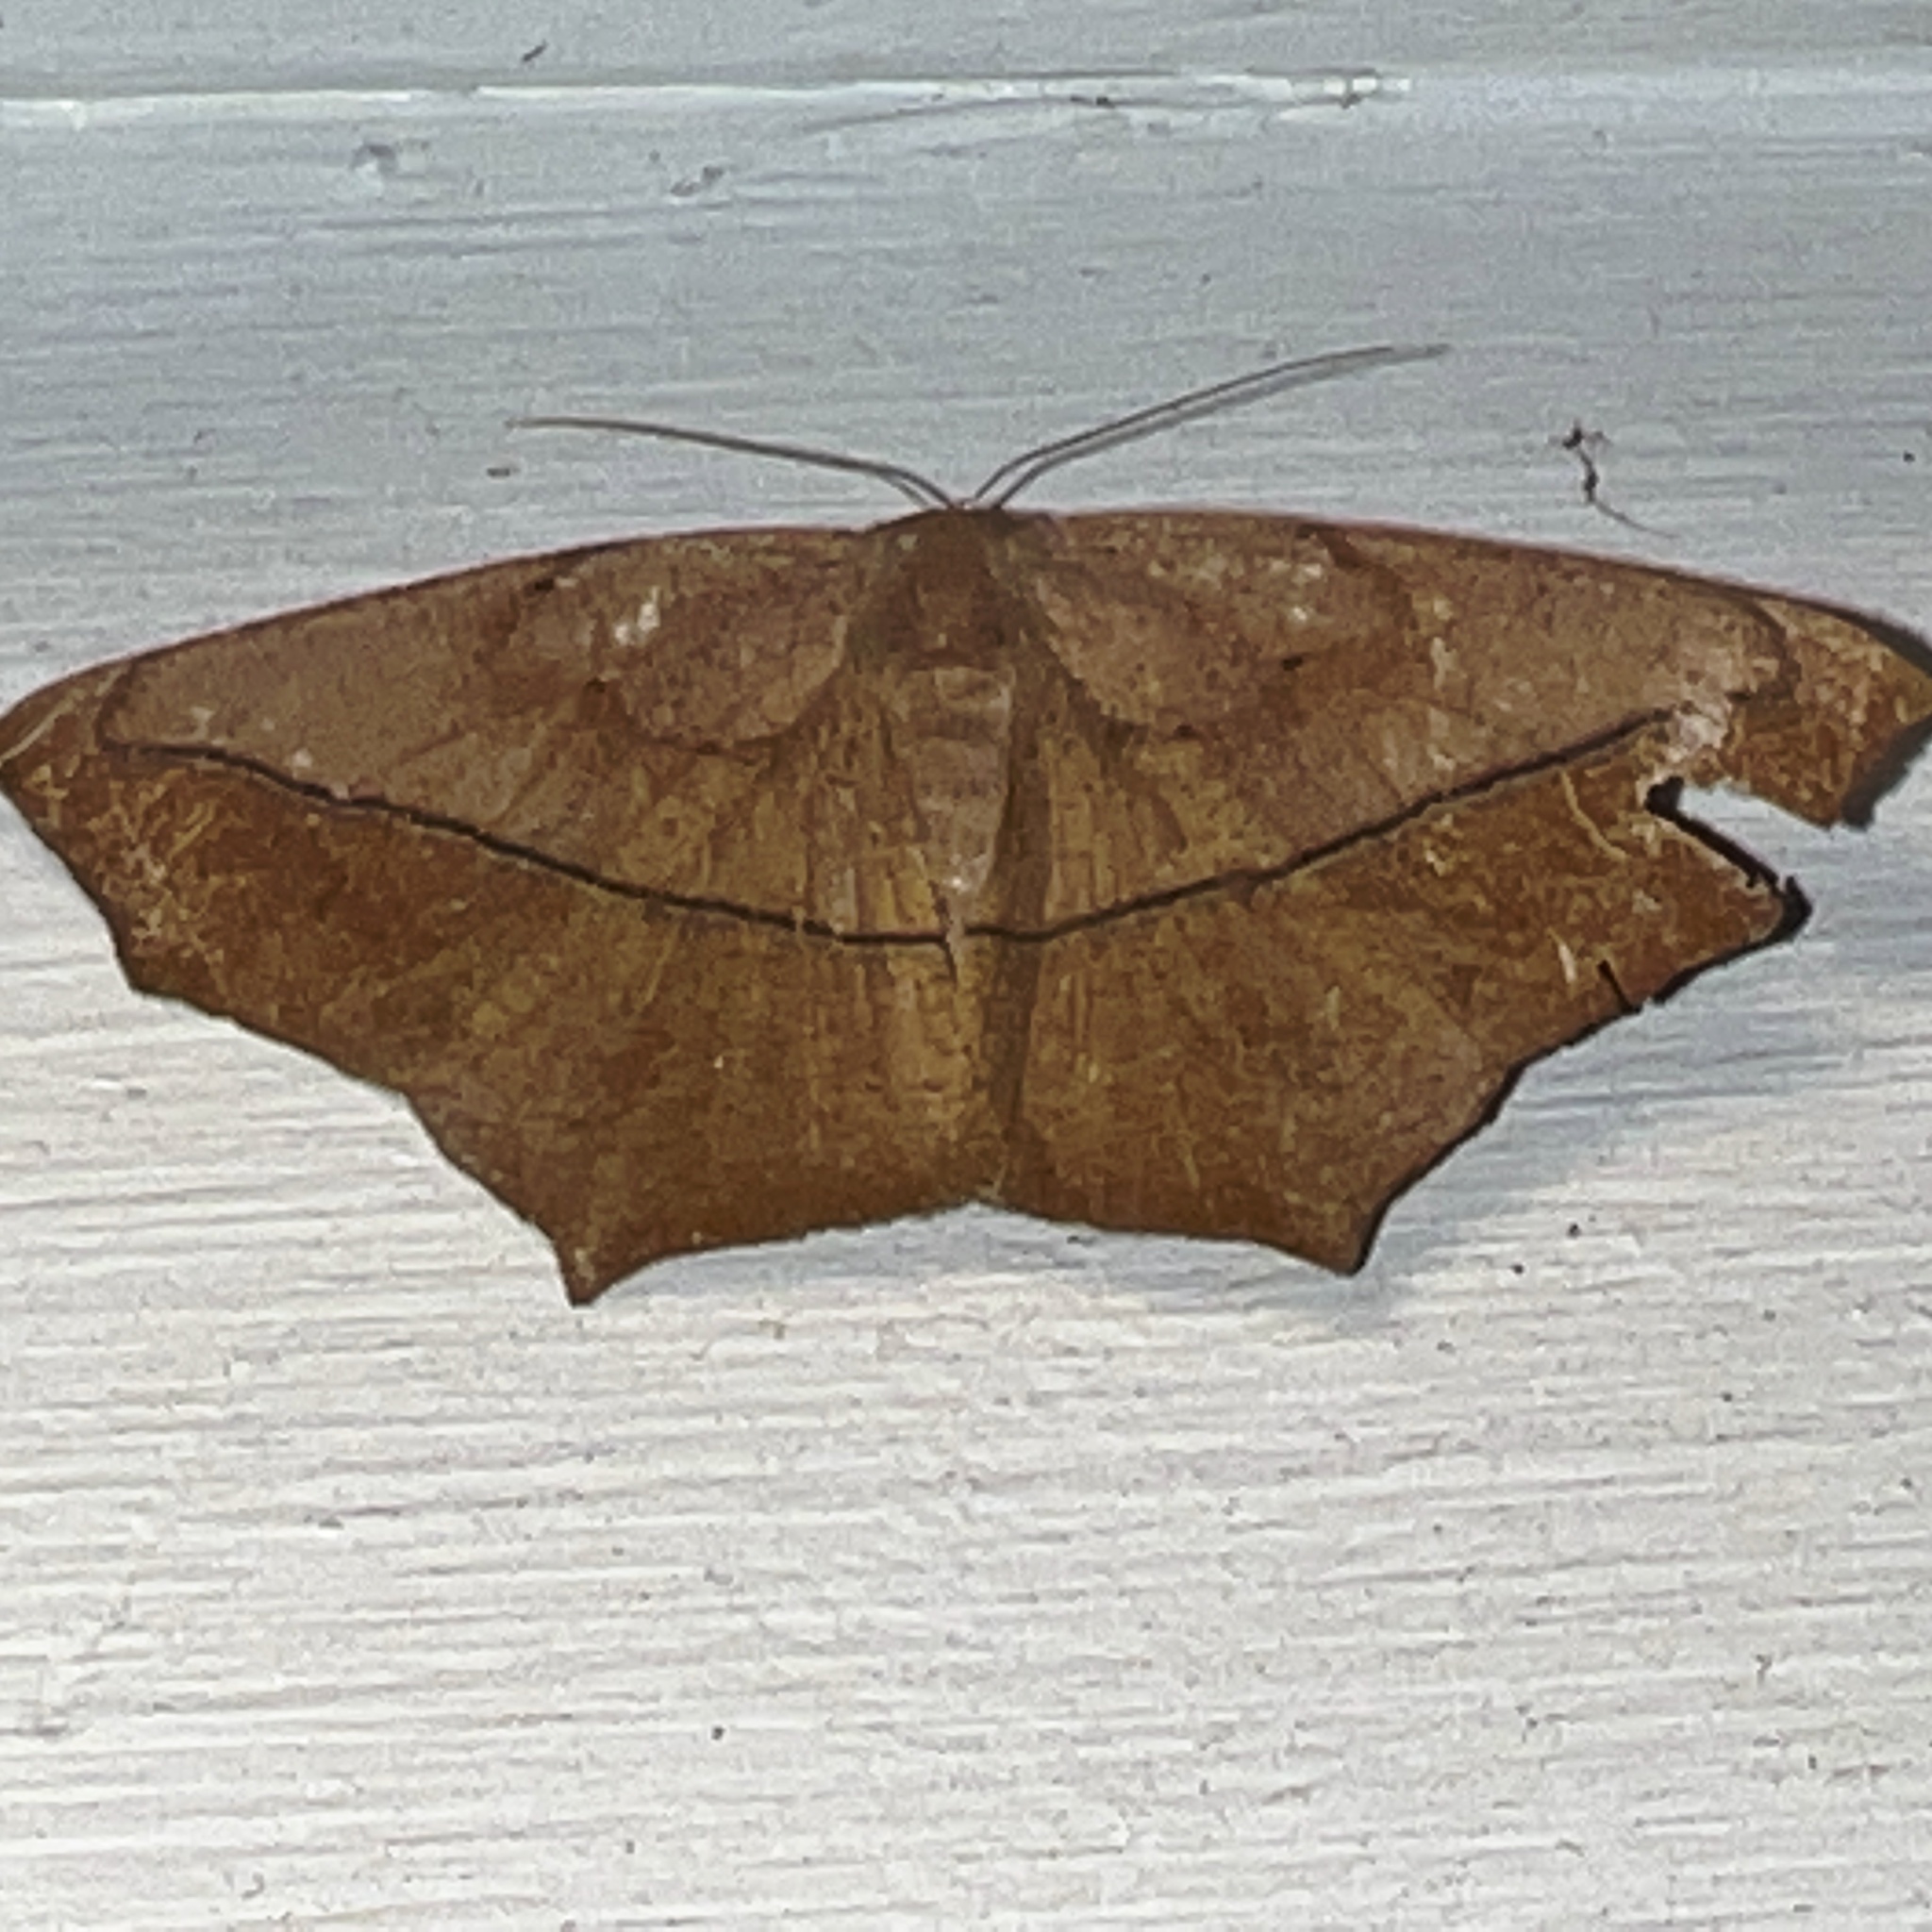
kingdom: Animalia
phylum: Arthropoda
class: Insecta
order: Lepidoptera
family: Geometridae
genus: Prochoerodes
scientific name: Prochoerodes lineola
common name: Large maple spanworm
